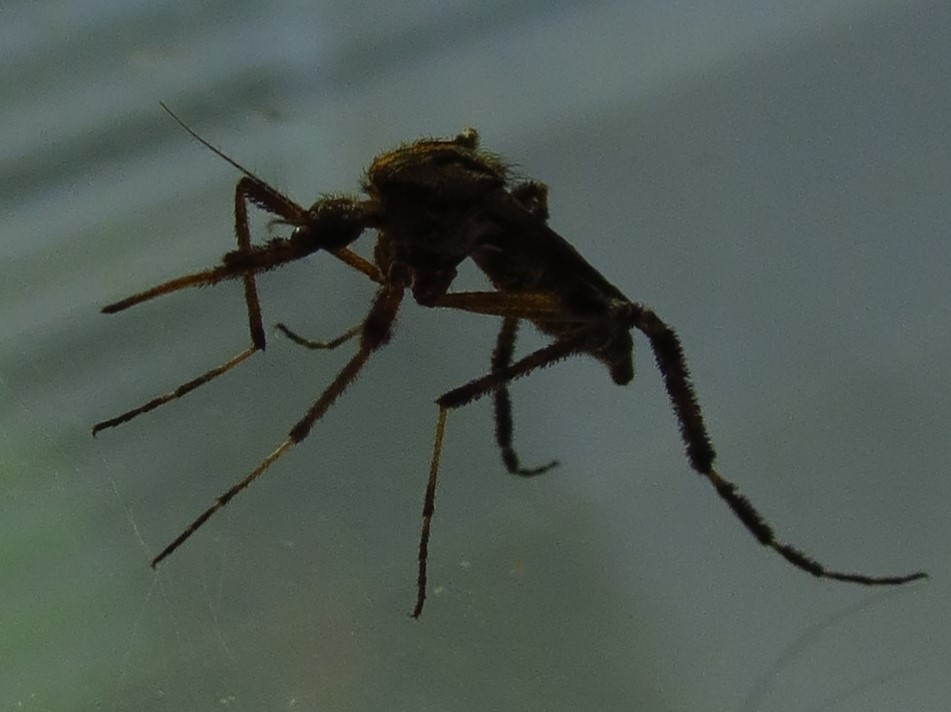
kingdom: Animalia
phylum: Arthropoda
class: Insecta
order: Diptera
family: Culicidae
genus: Psorophora
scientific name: Psorophora ciliata
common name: Gallinipper
